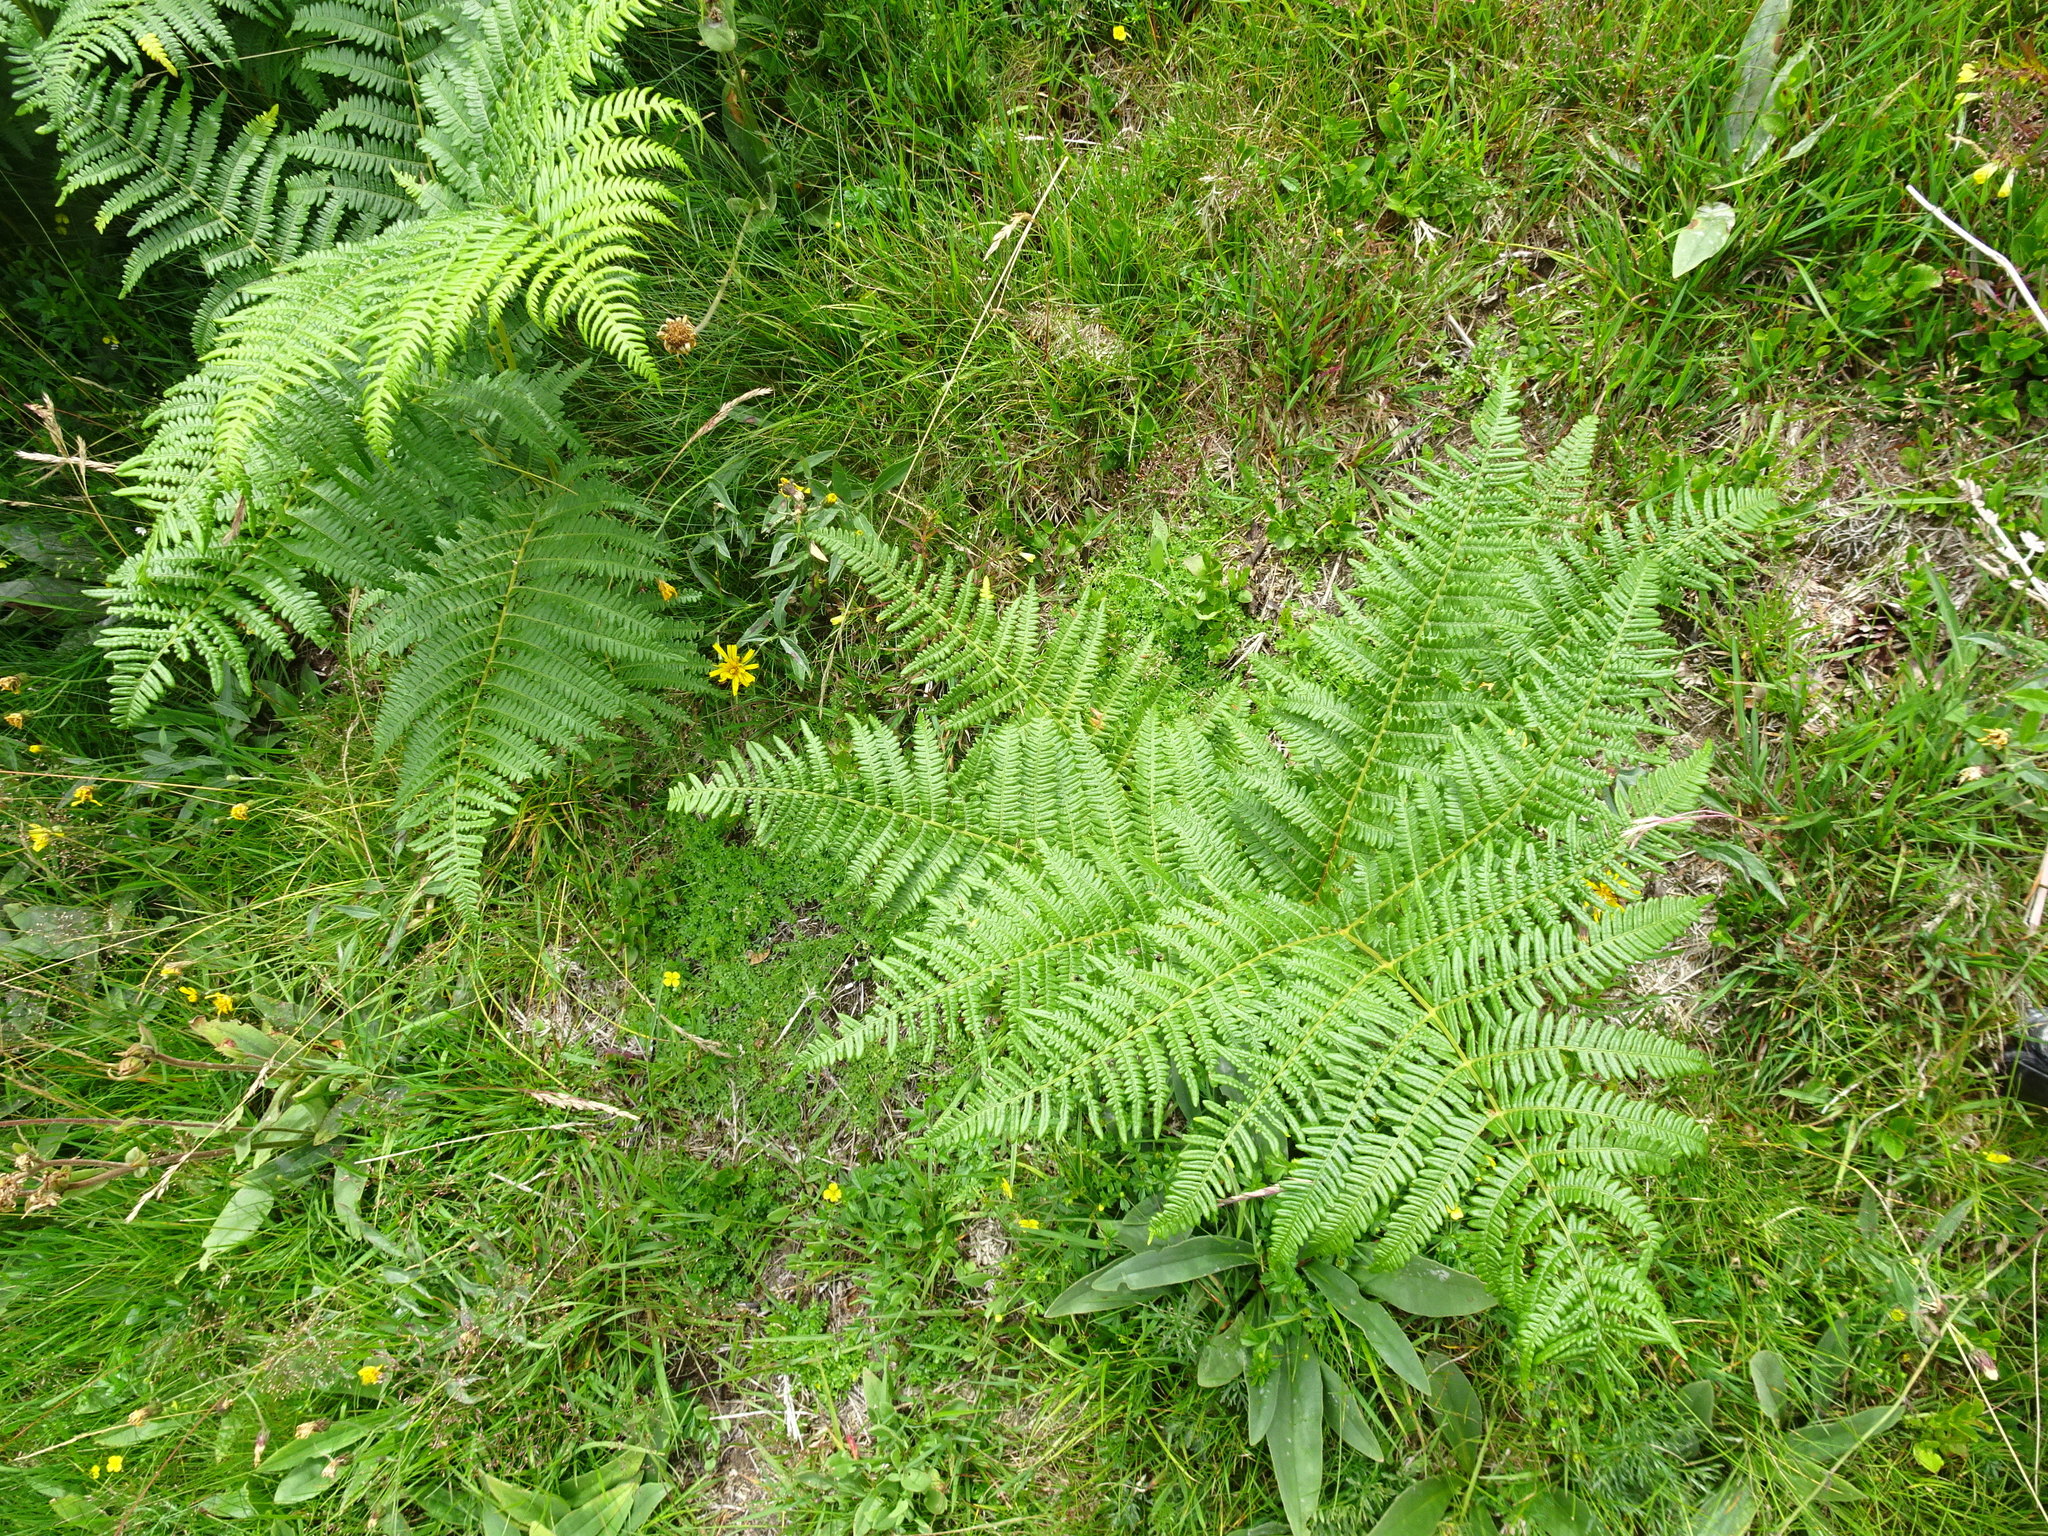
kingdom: Plantae
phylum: Tracheophyta
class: Polypodiopsida
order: Polypodiales
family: Dennstaedtiaceae
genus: Pteridium
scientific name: Pteridium aquilinum
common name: Bracken
